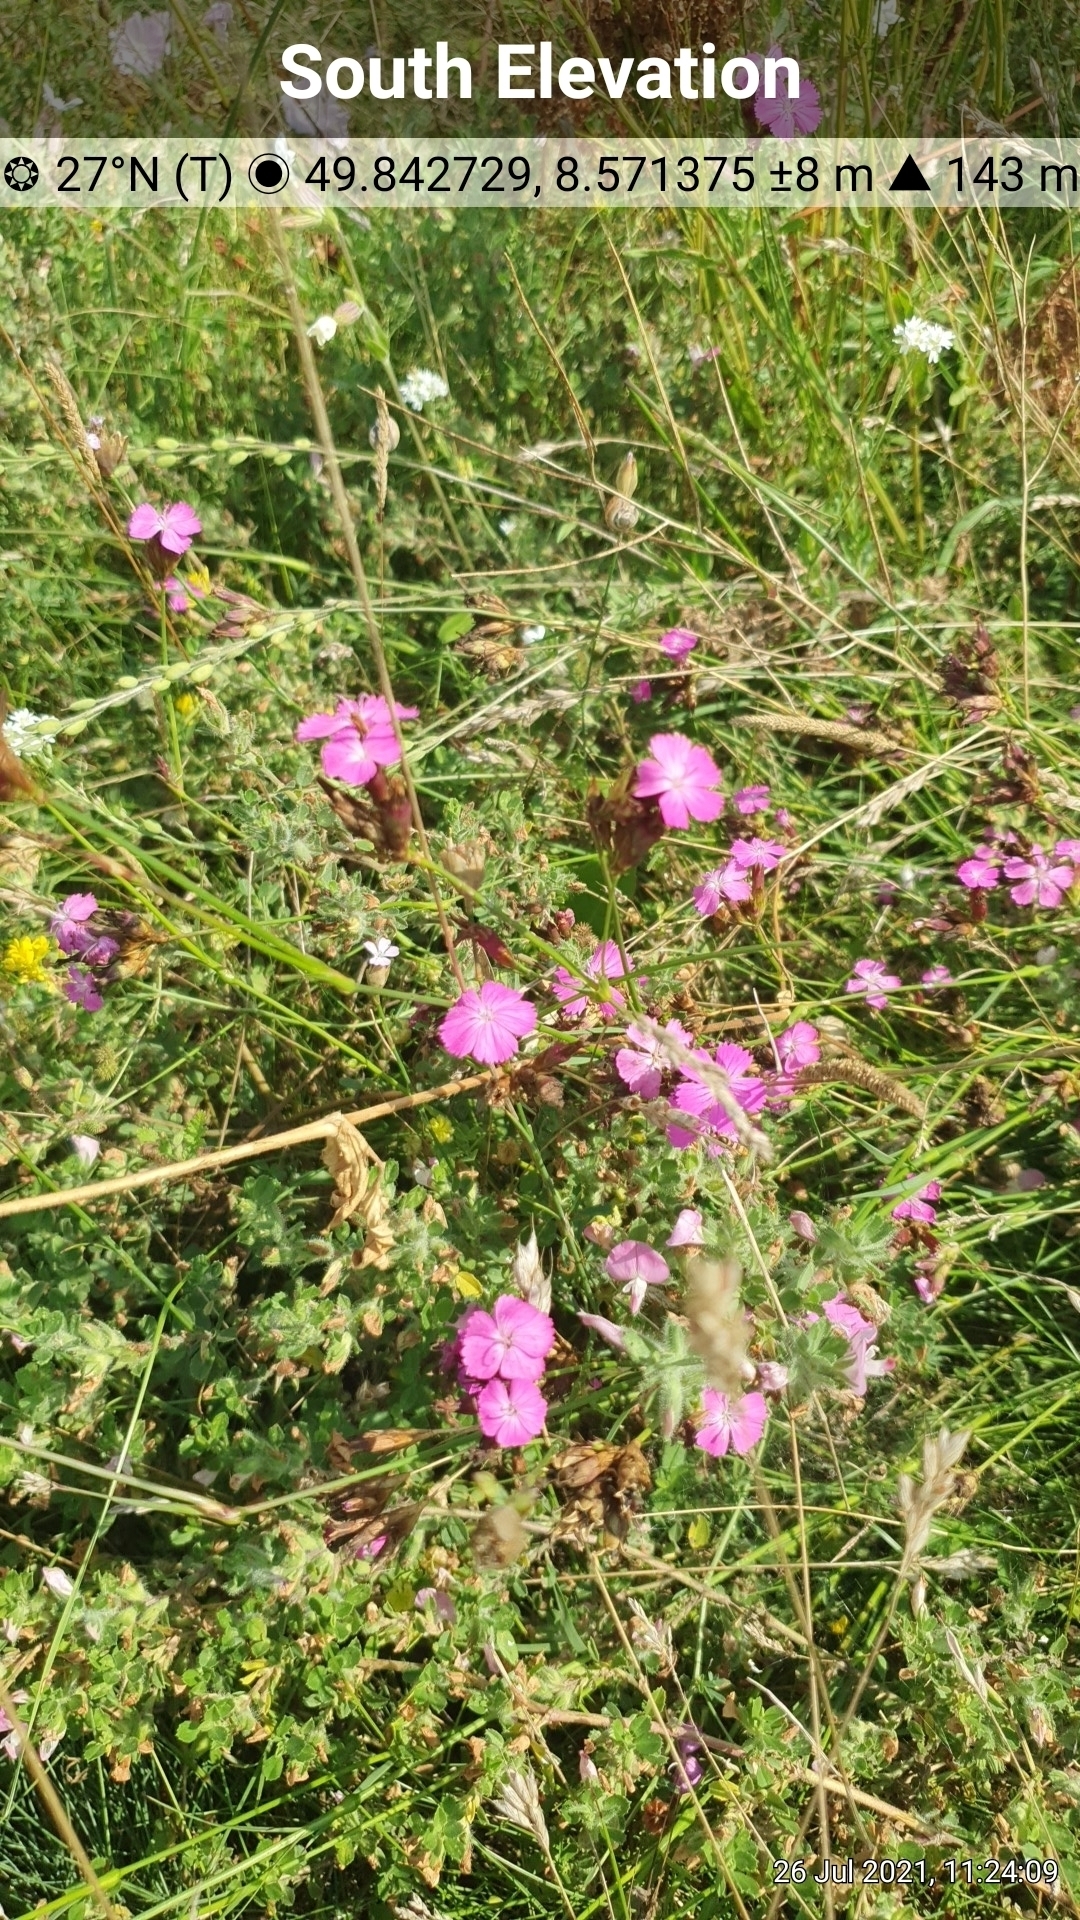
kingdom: Plantae
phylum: Tracheophyta
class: Magnoliopsida
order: Caryophyllales
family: Caryophyllaceae
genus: Dianthus
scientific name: Dianthus carthusianorum
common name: Carthusian pink
